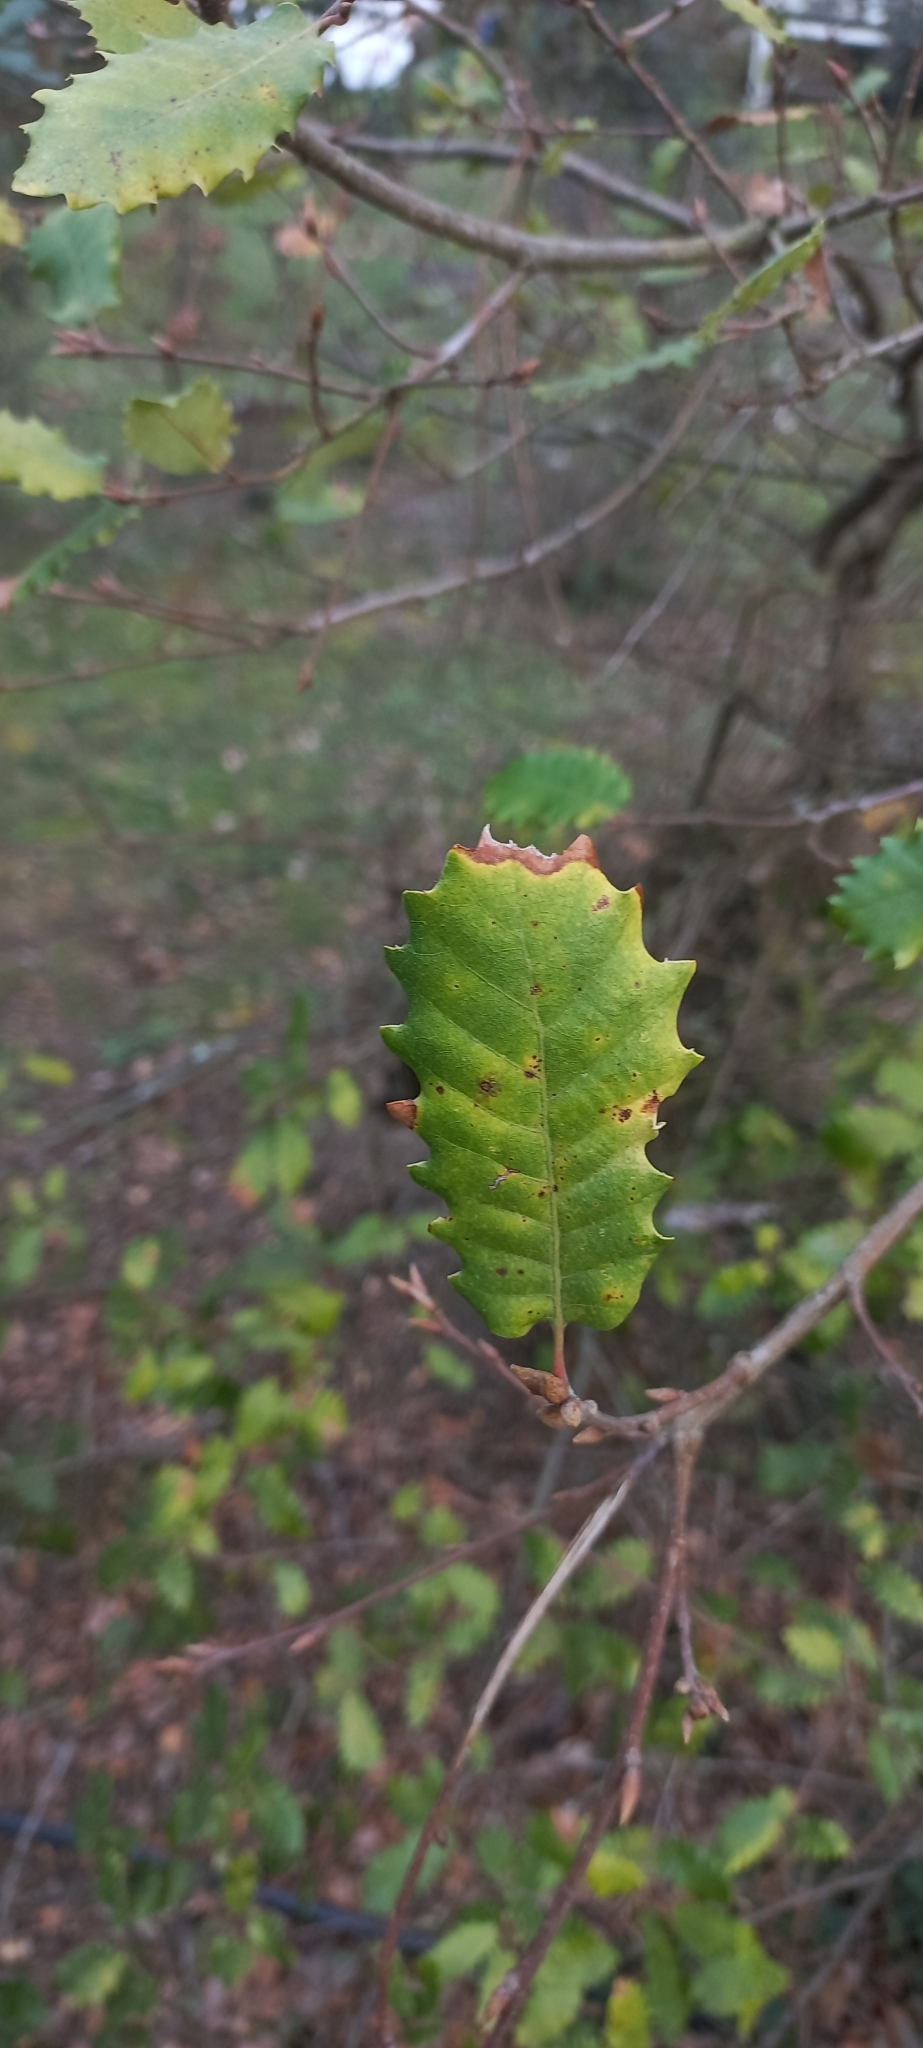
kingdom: Plantae
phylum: Tracheophyta
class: Magnoliopsida
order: Fagales
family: Fagaceae
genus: Quercus
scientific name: Quercus faginea
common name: Gall oak tree
